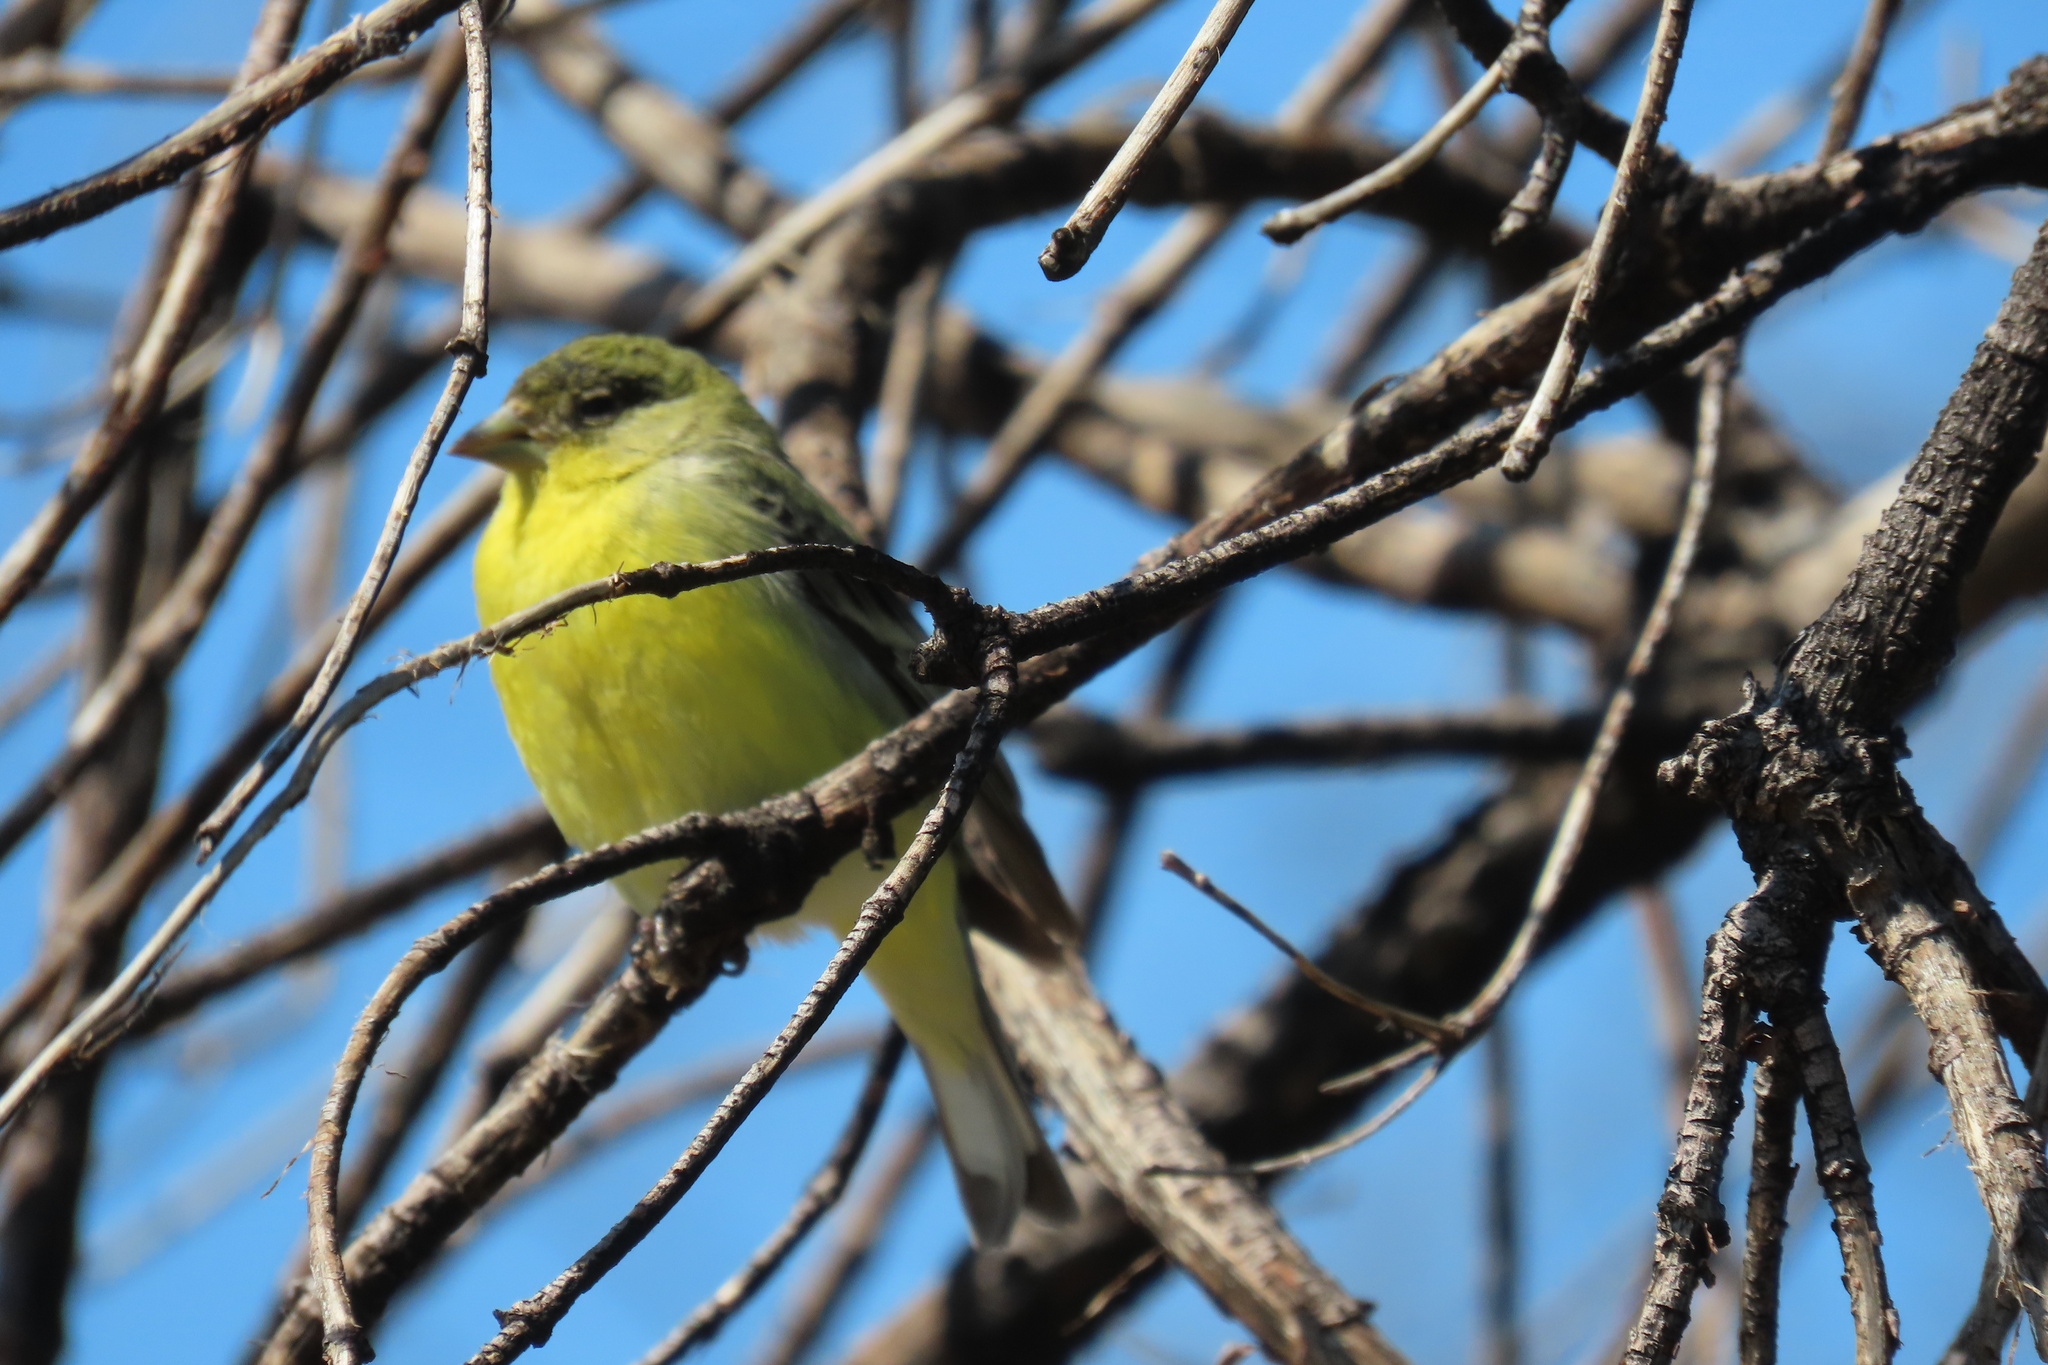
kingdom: Animalia
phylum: Chordata
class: Aves
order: Passeriformes
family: Fringillidae
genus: Spinus
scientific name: Spinus psaltria
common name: Lesser goldfinch
